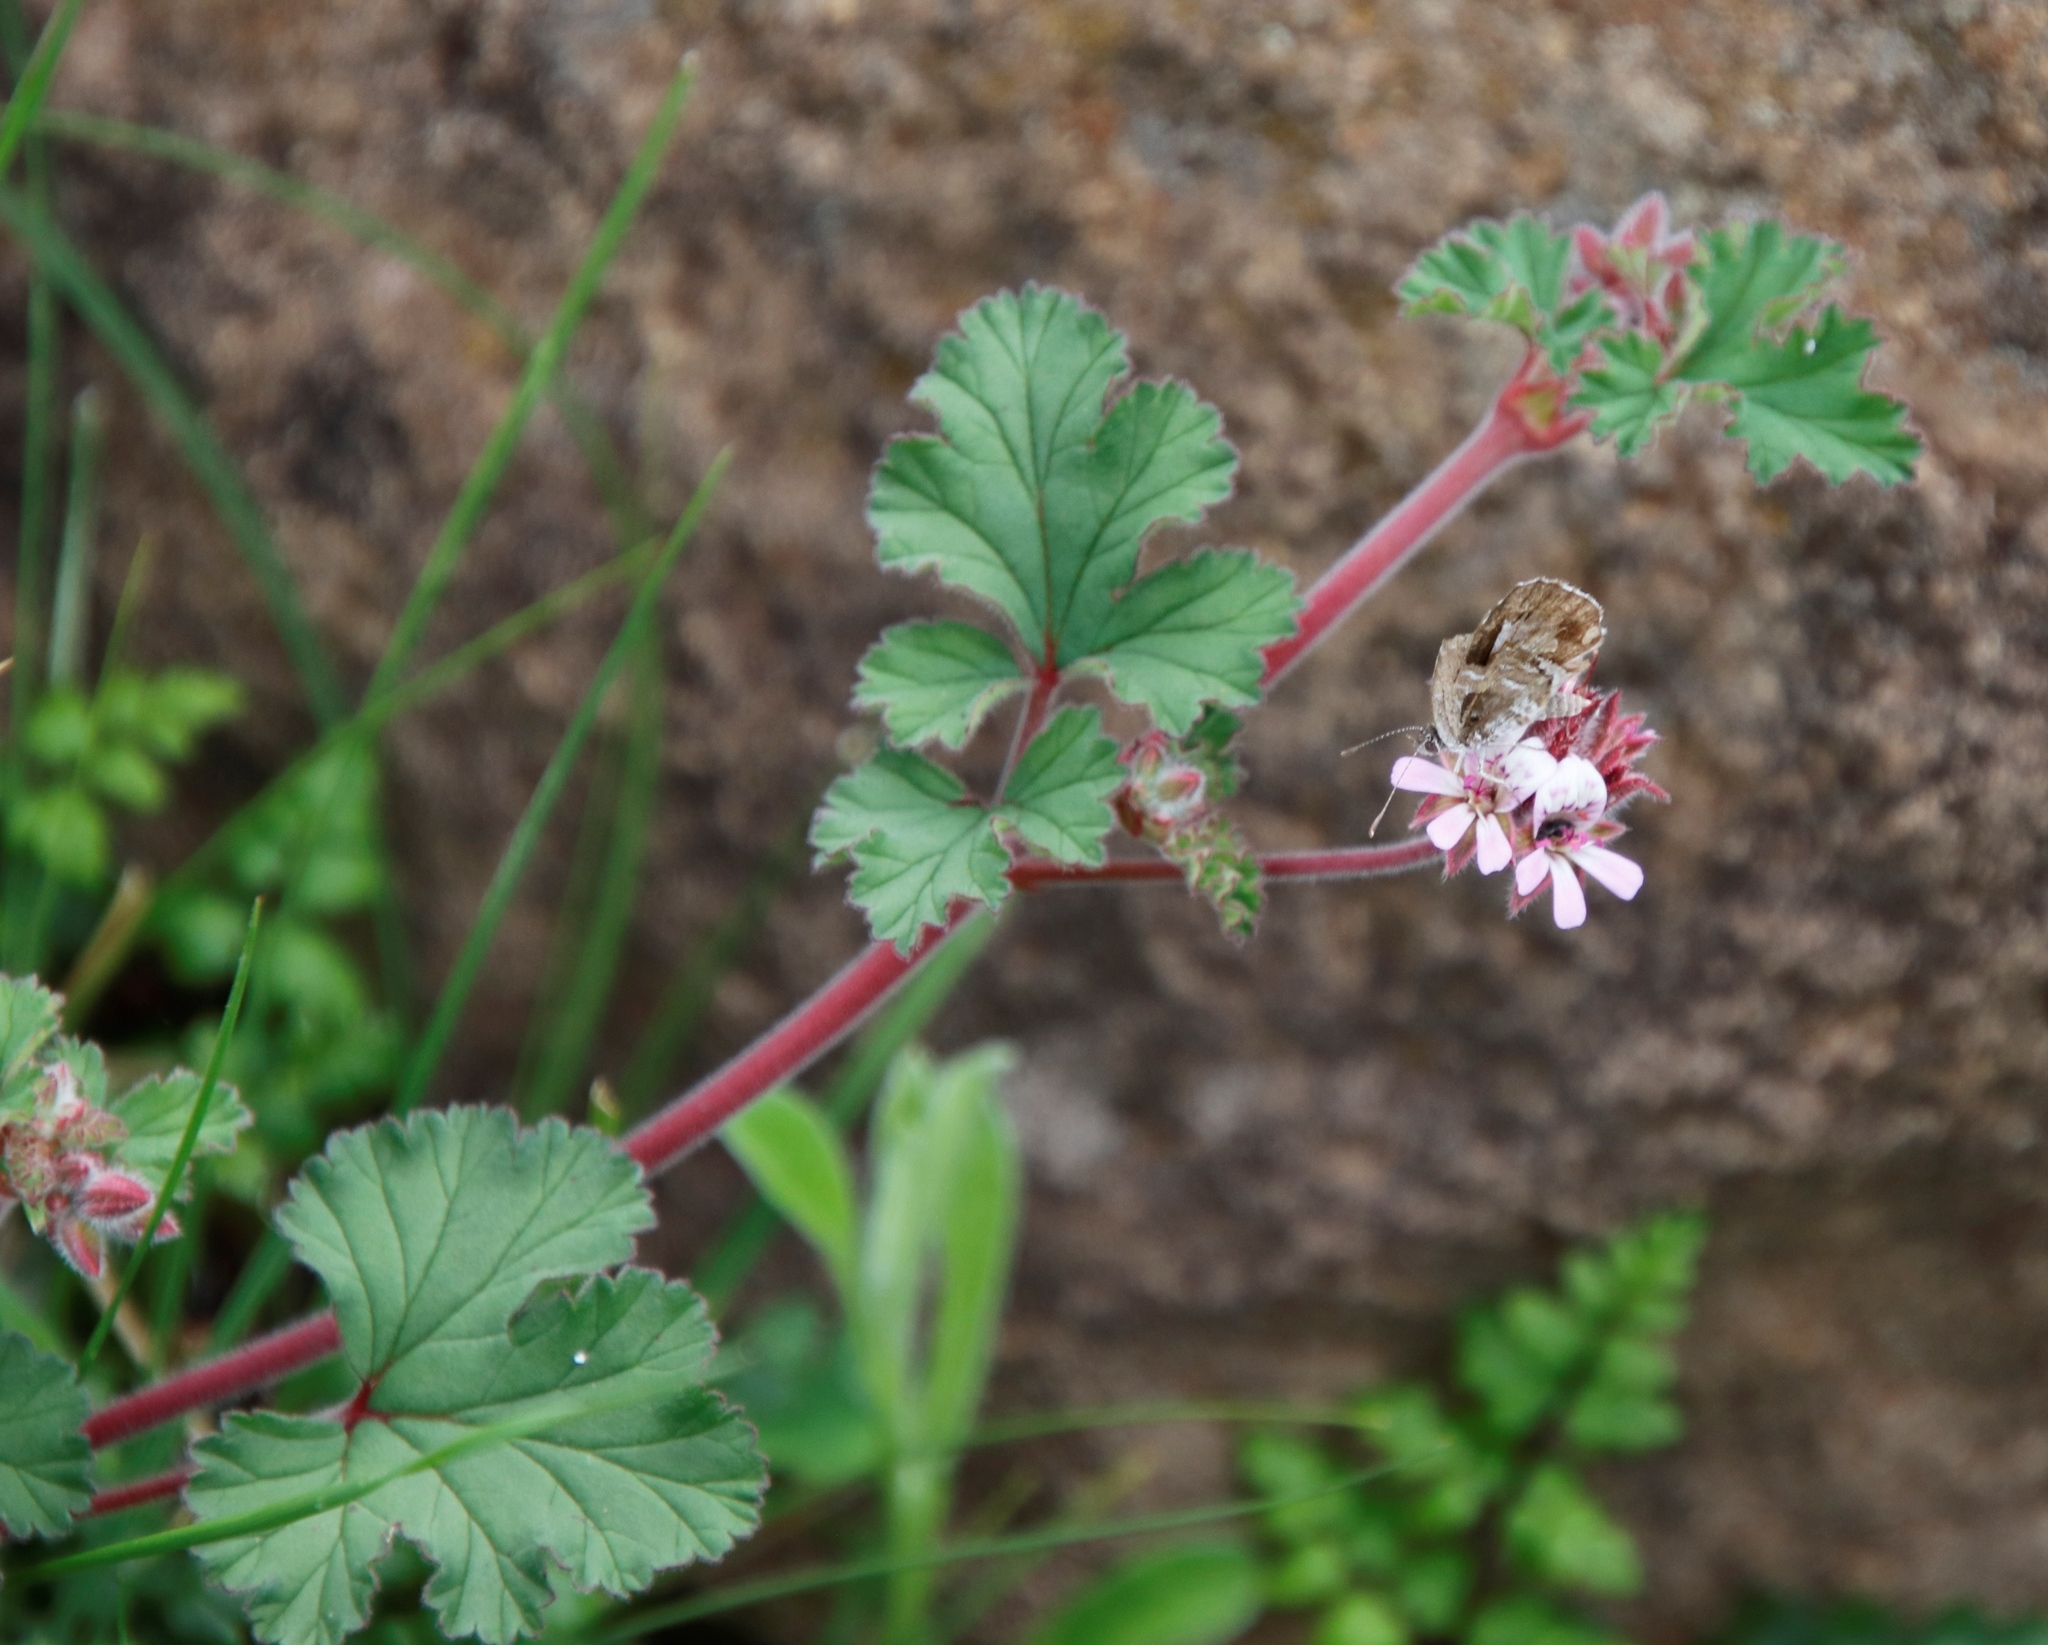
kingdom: Plantae
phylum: Tracheophyta
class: Magnoliopsida
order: Geraniales
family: Geraniaceae
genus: Pelargonium
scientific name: Pelargonium capituliforme
